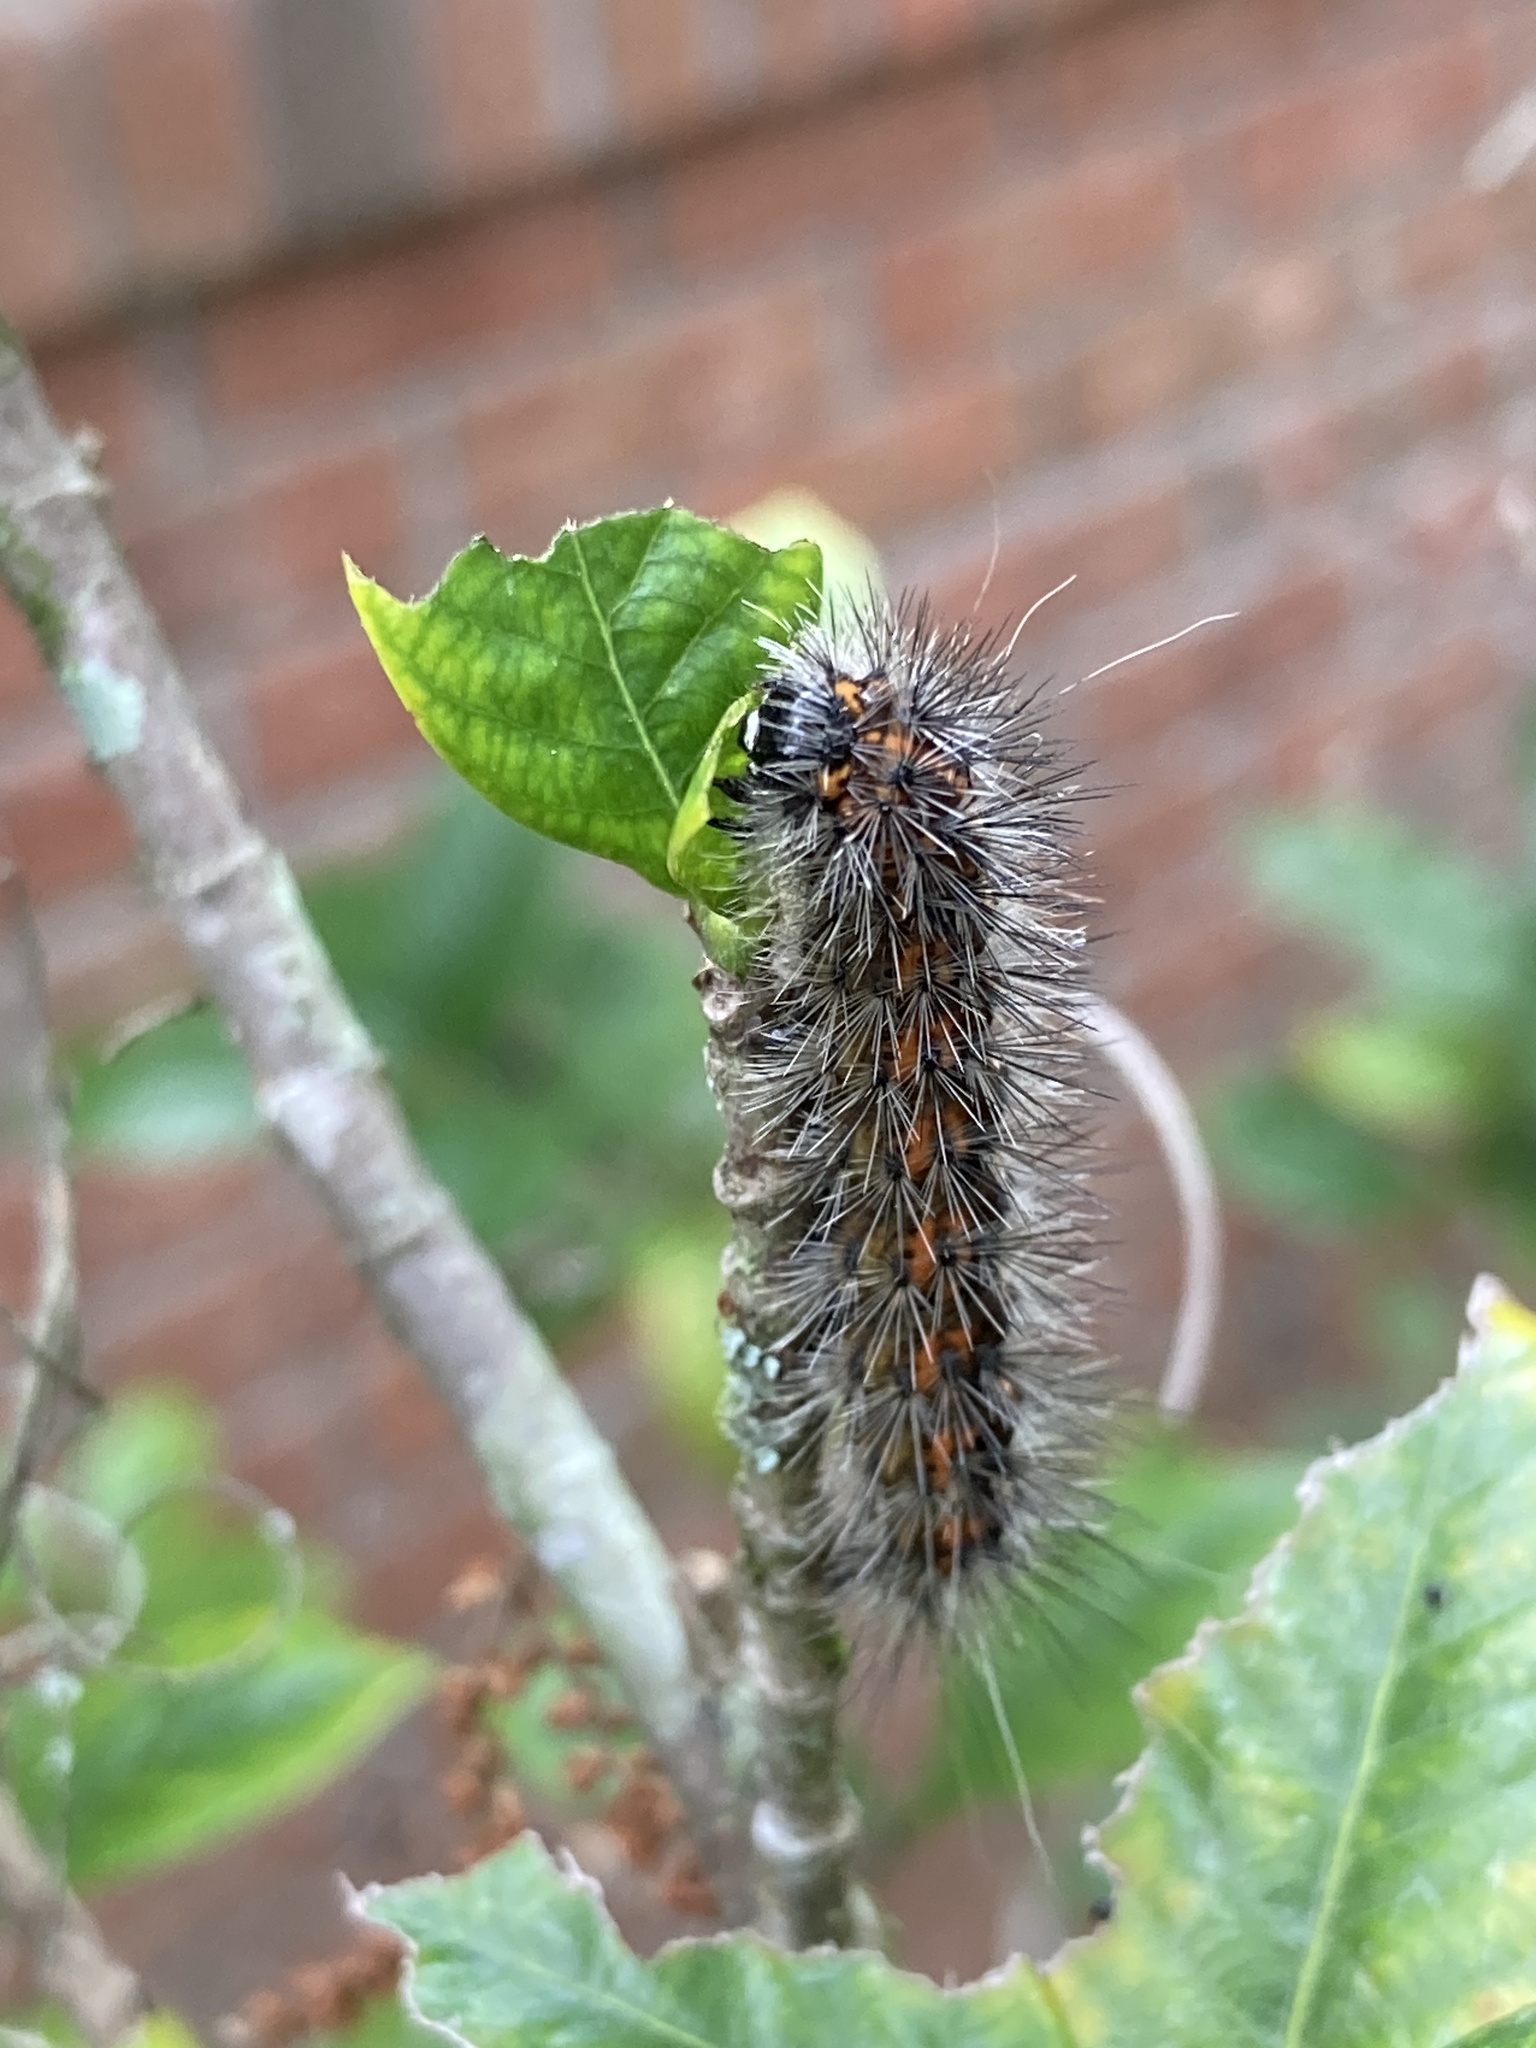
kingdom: Animalia
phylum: Arthropoda
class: Insecta
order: Lepidoptera
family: Erebidae
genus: Spilosoma
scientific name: Spilosoma dubia
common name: Dubious tiger moth
